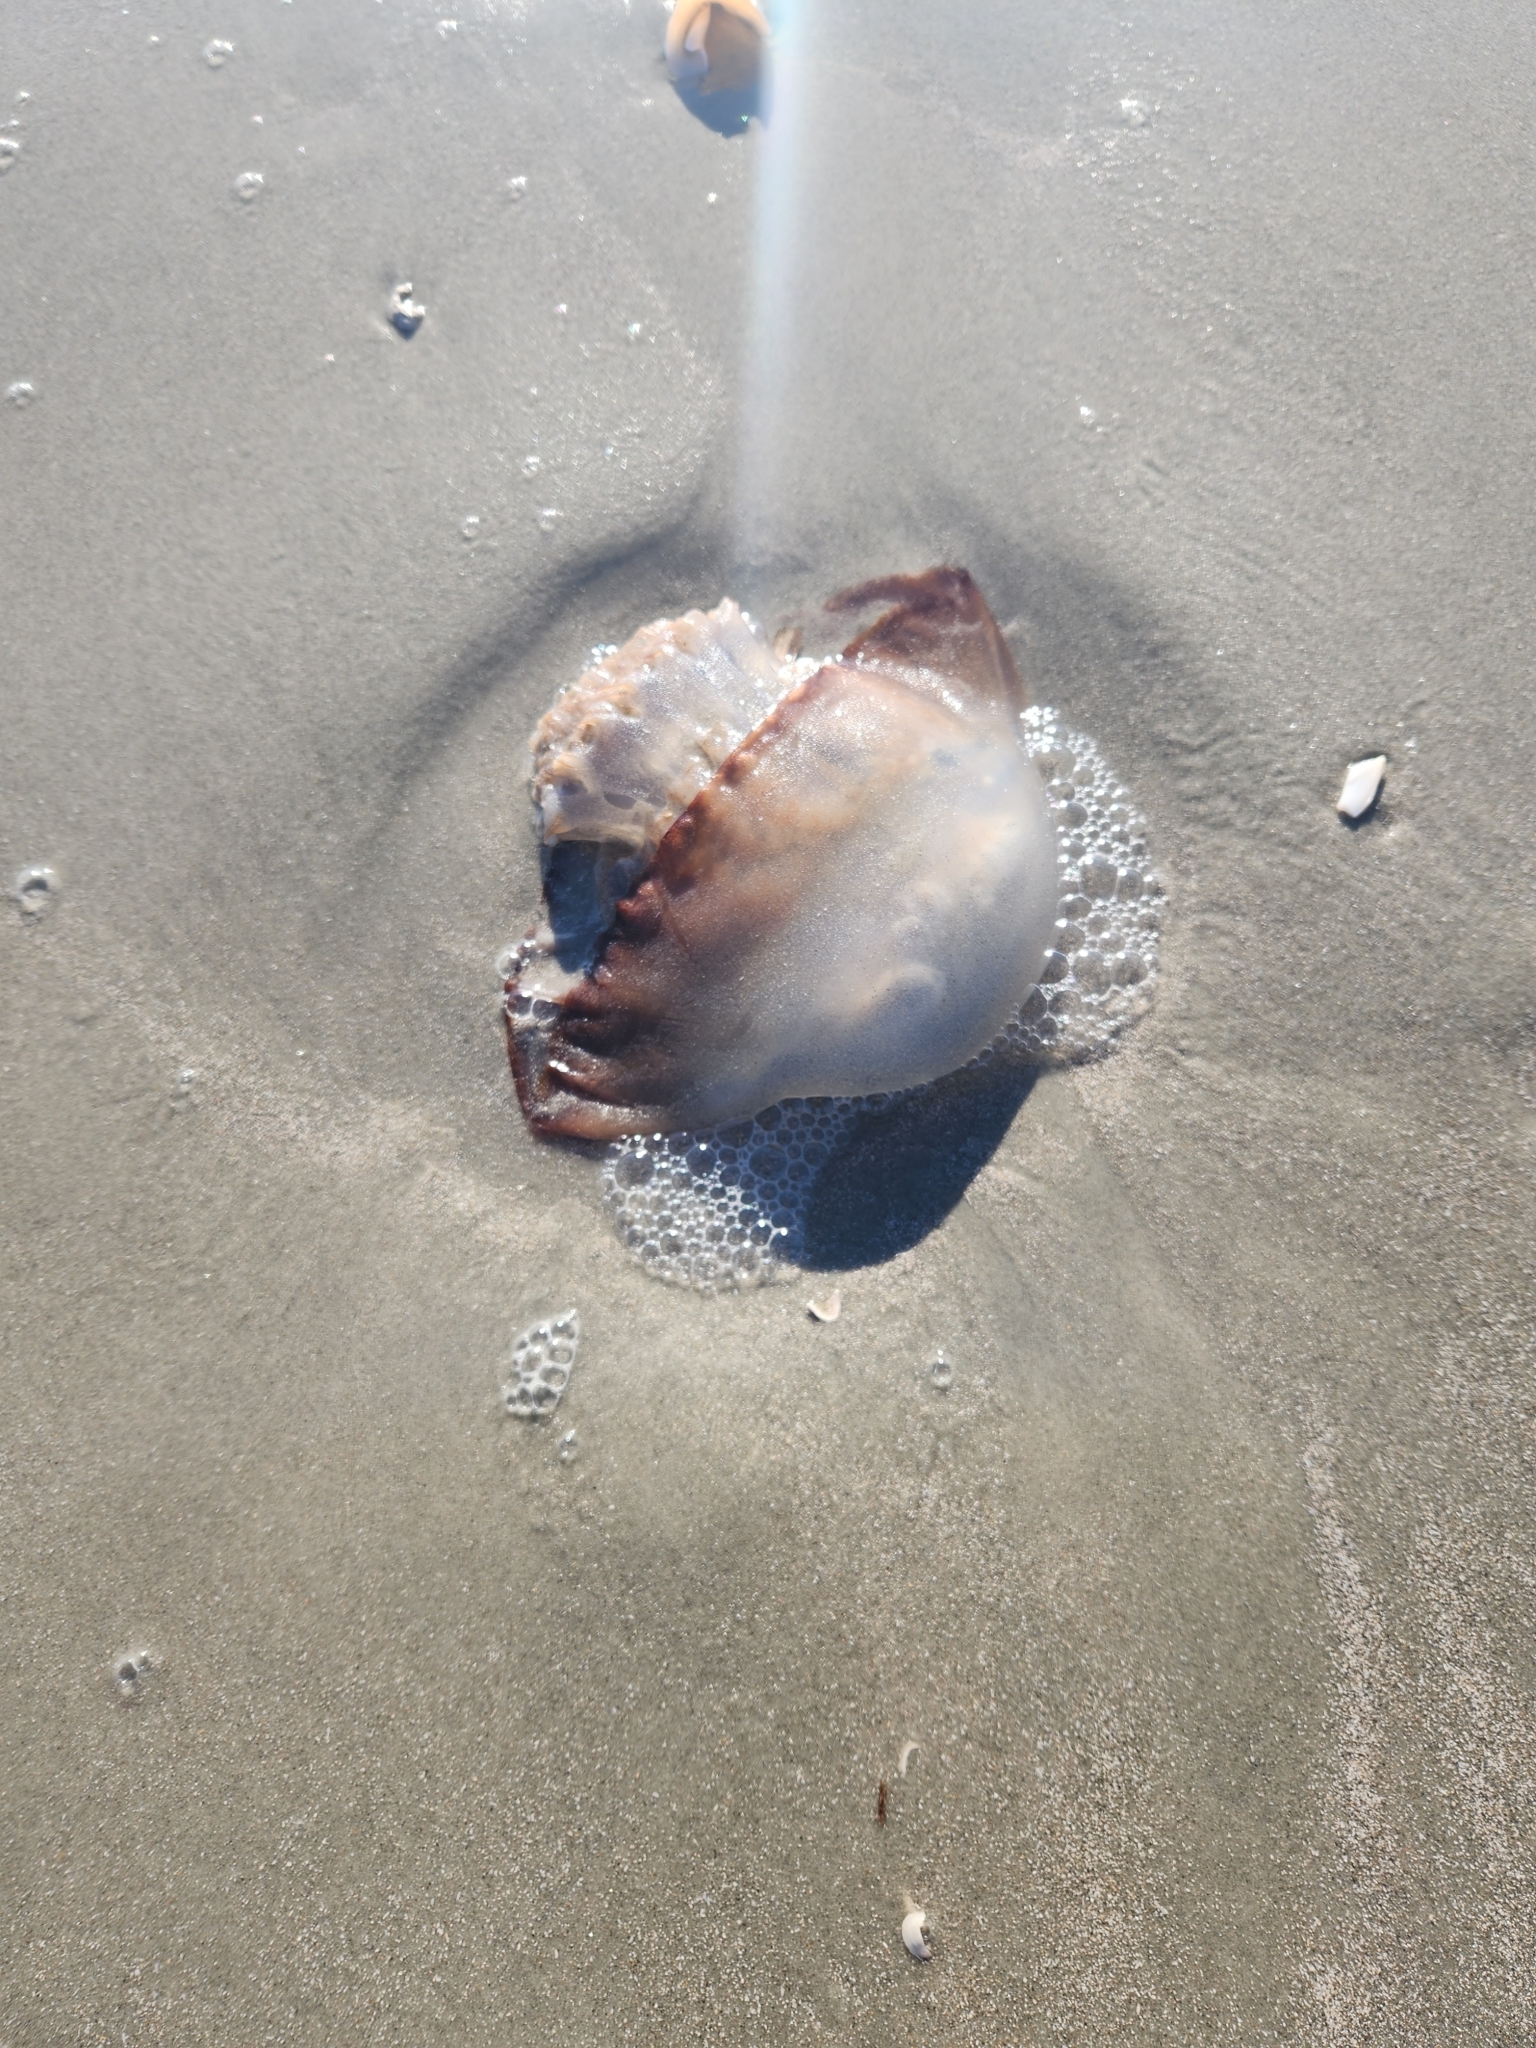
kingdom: Animalia
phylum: Cnidaria
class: Scyphozoa
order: Rhizostomeae
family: Stomolophidae
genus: Stomolophus
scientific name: Stomolophus meleagris
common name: Cabbagehead
